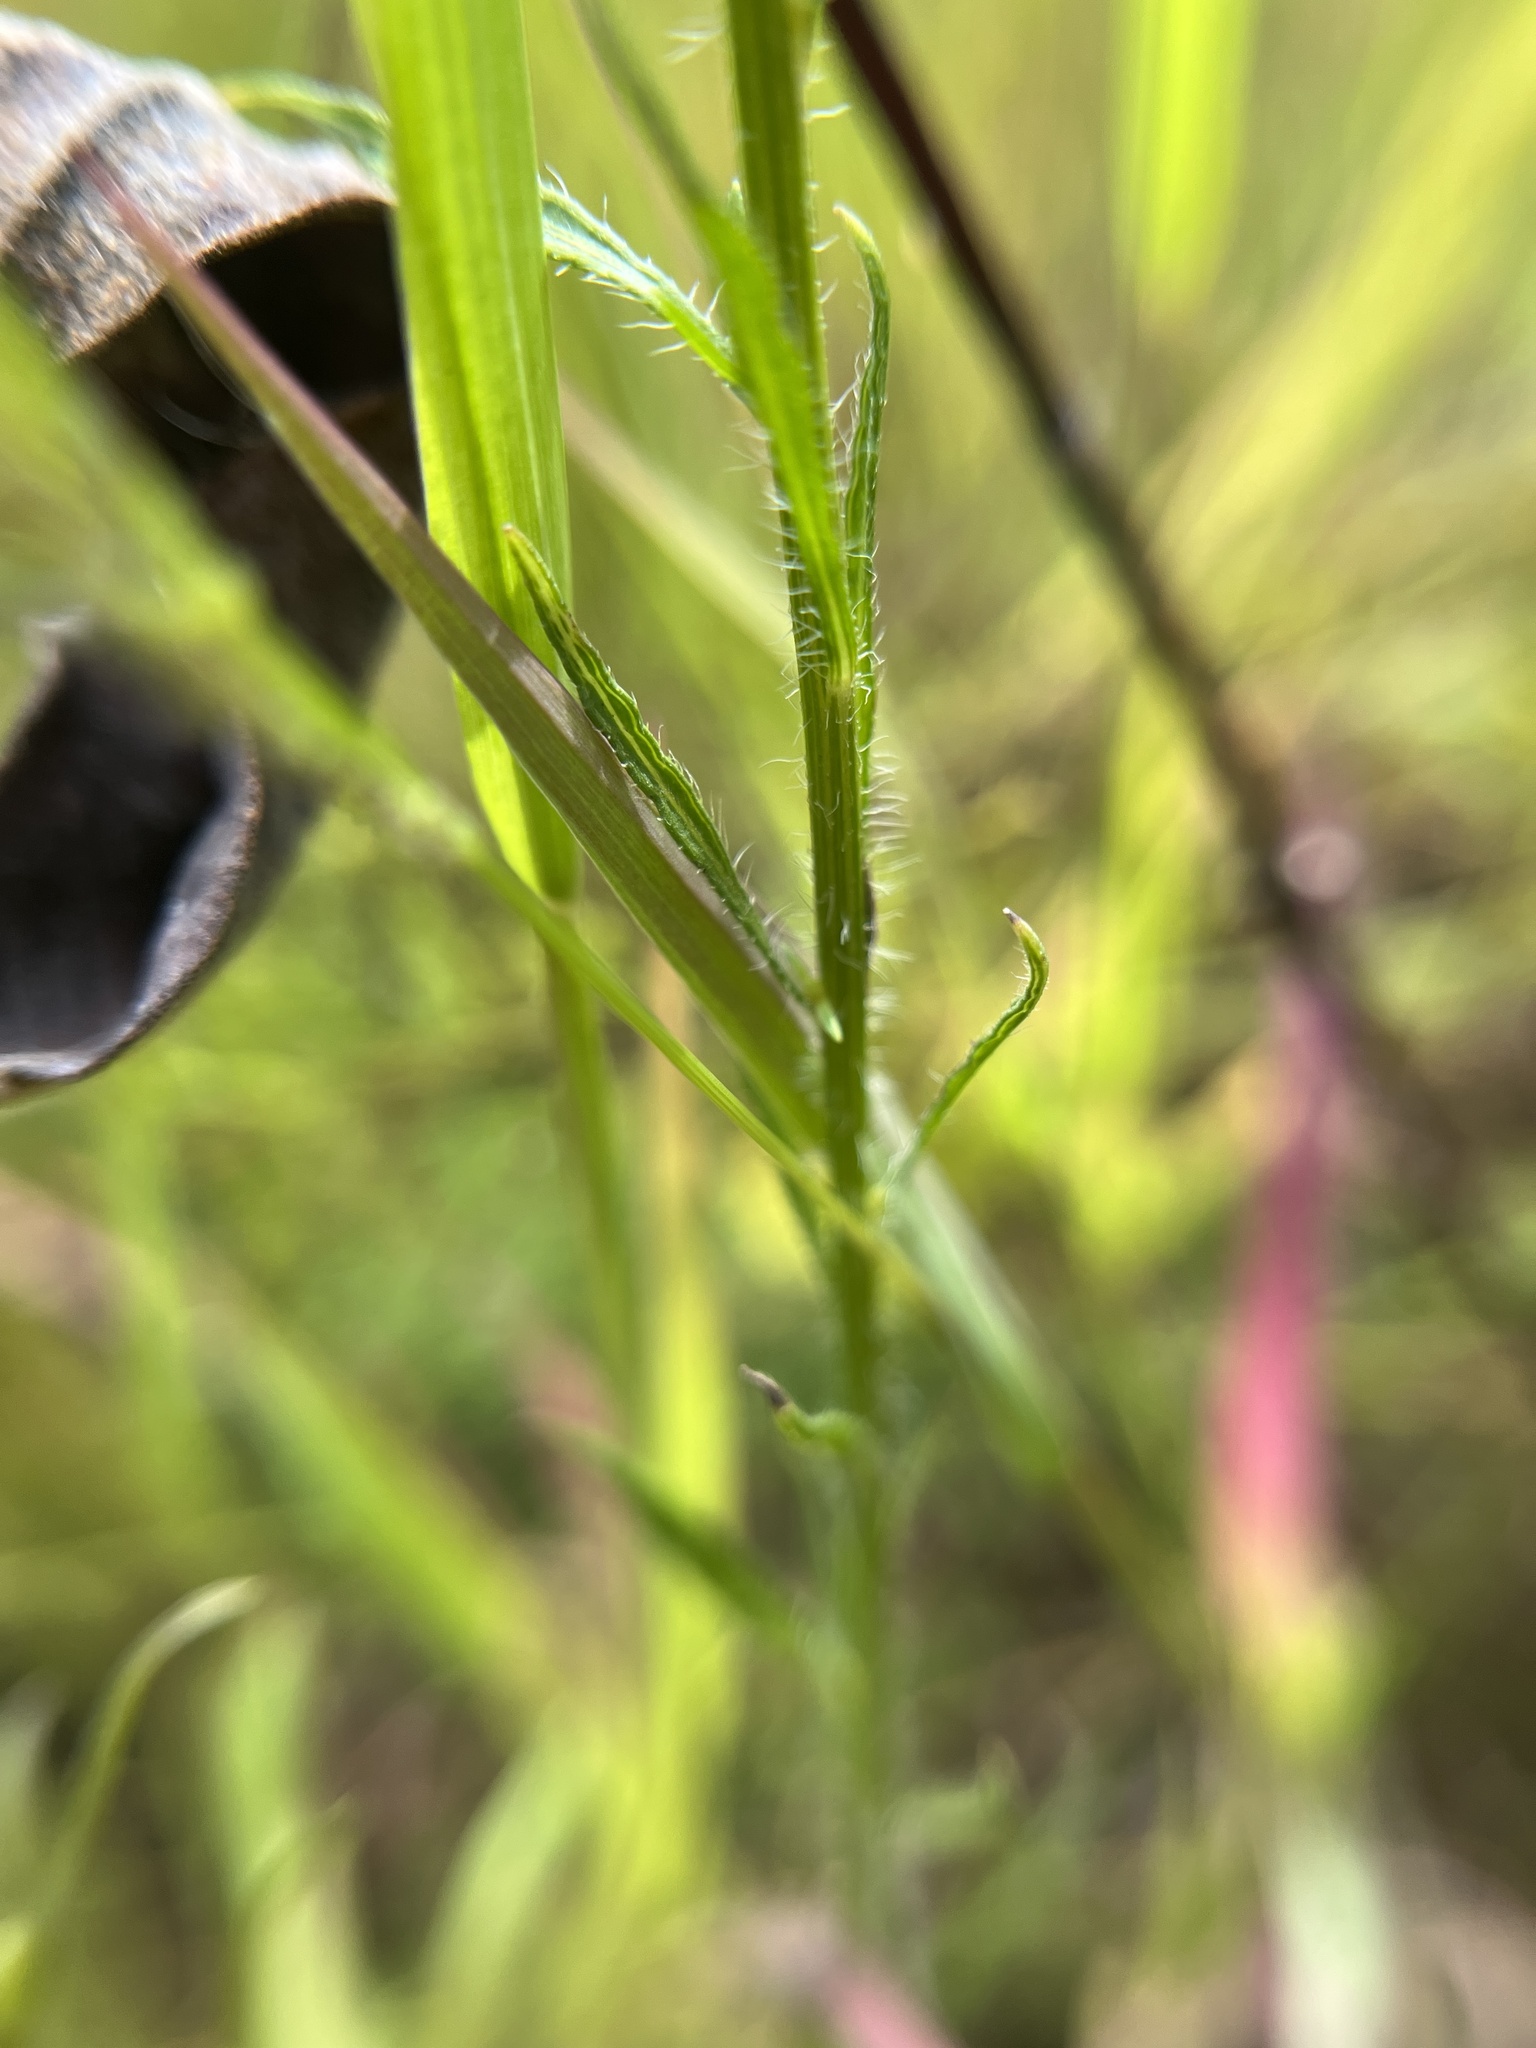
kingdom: Plantae
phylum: Tracheophyta
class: Magnoliopsida
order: Asterales
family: Asteraceae
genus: Erigeron
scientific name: Erigeron canadensis
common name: Canadian fleabane
